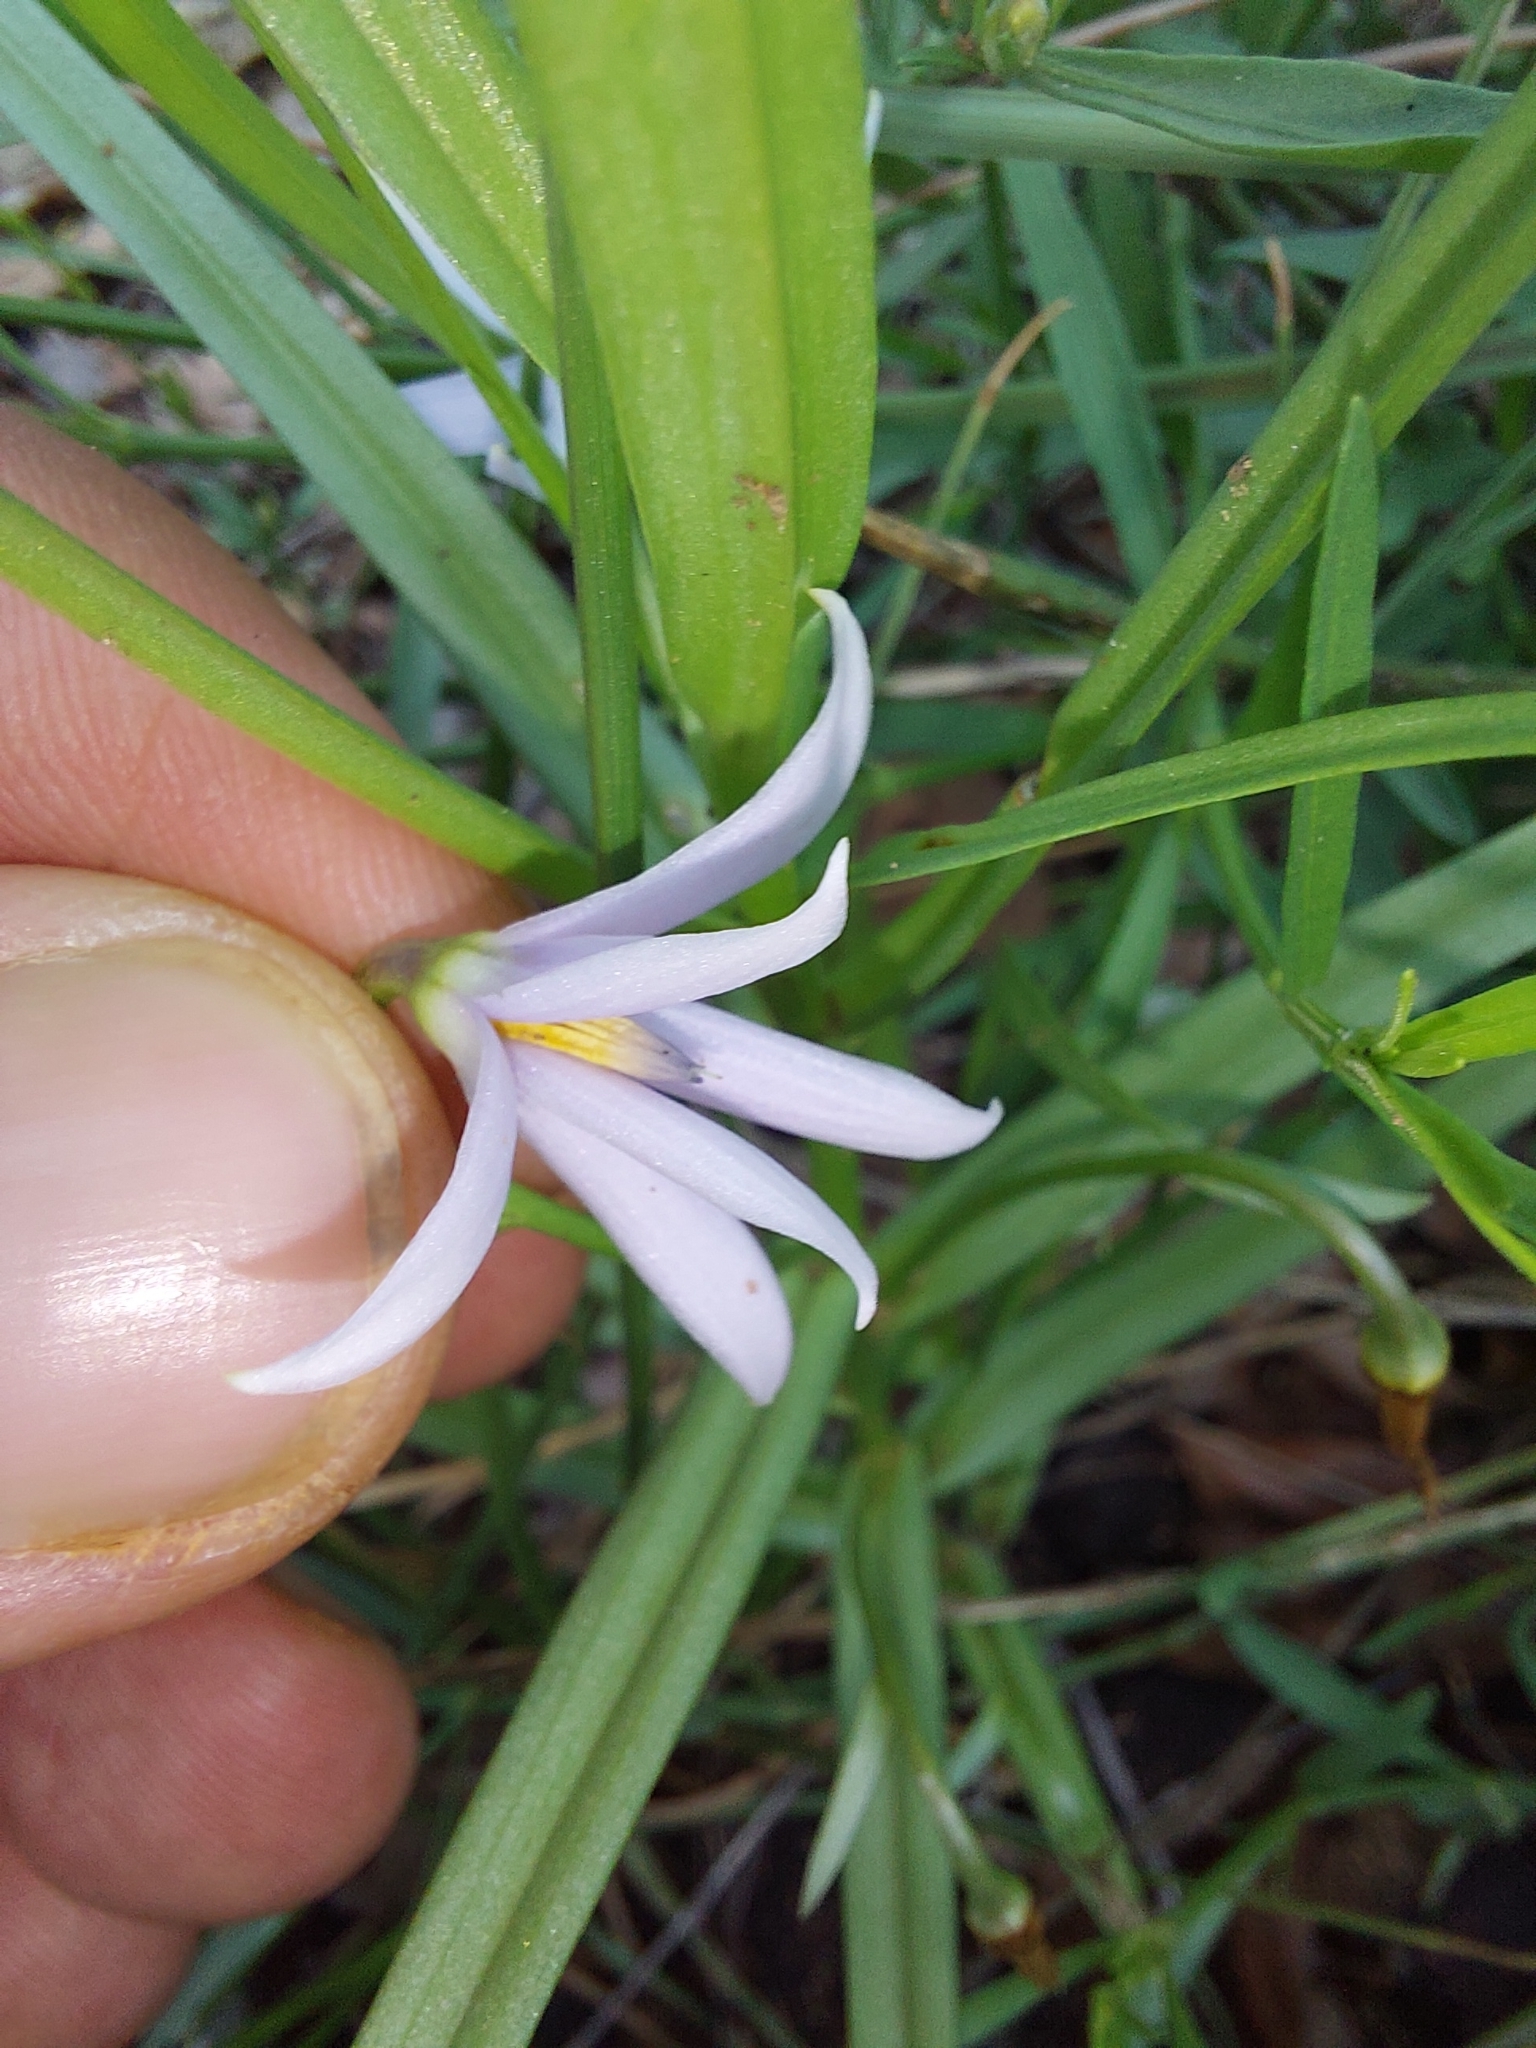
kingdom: Plantae
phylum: Tracheophyta
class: Liliopsida
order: Asparagales
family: Tecophilaeaceae
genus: Walleria
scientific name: Walleria nutans
